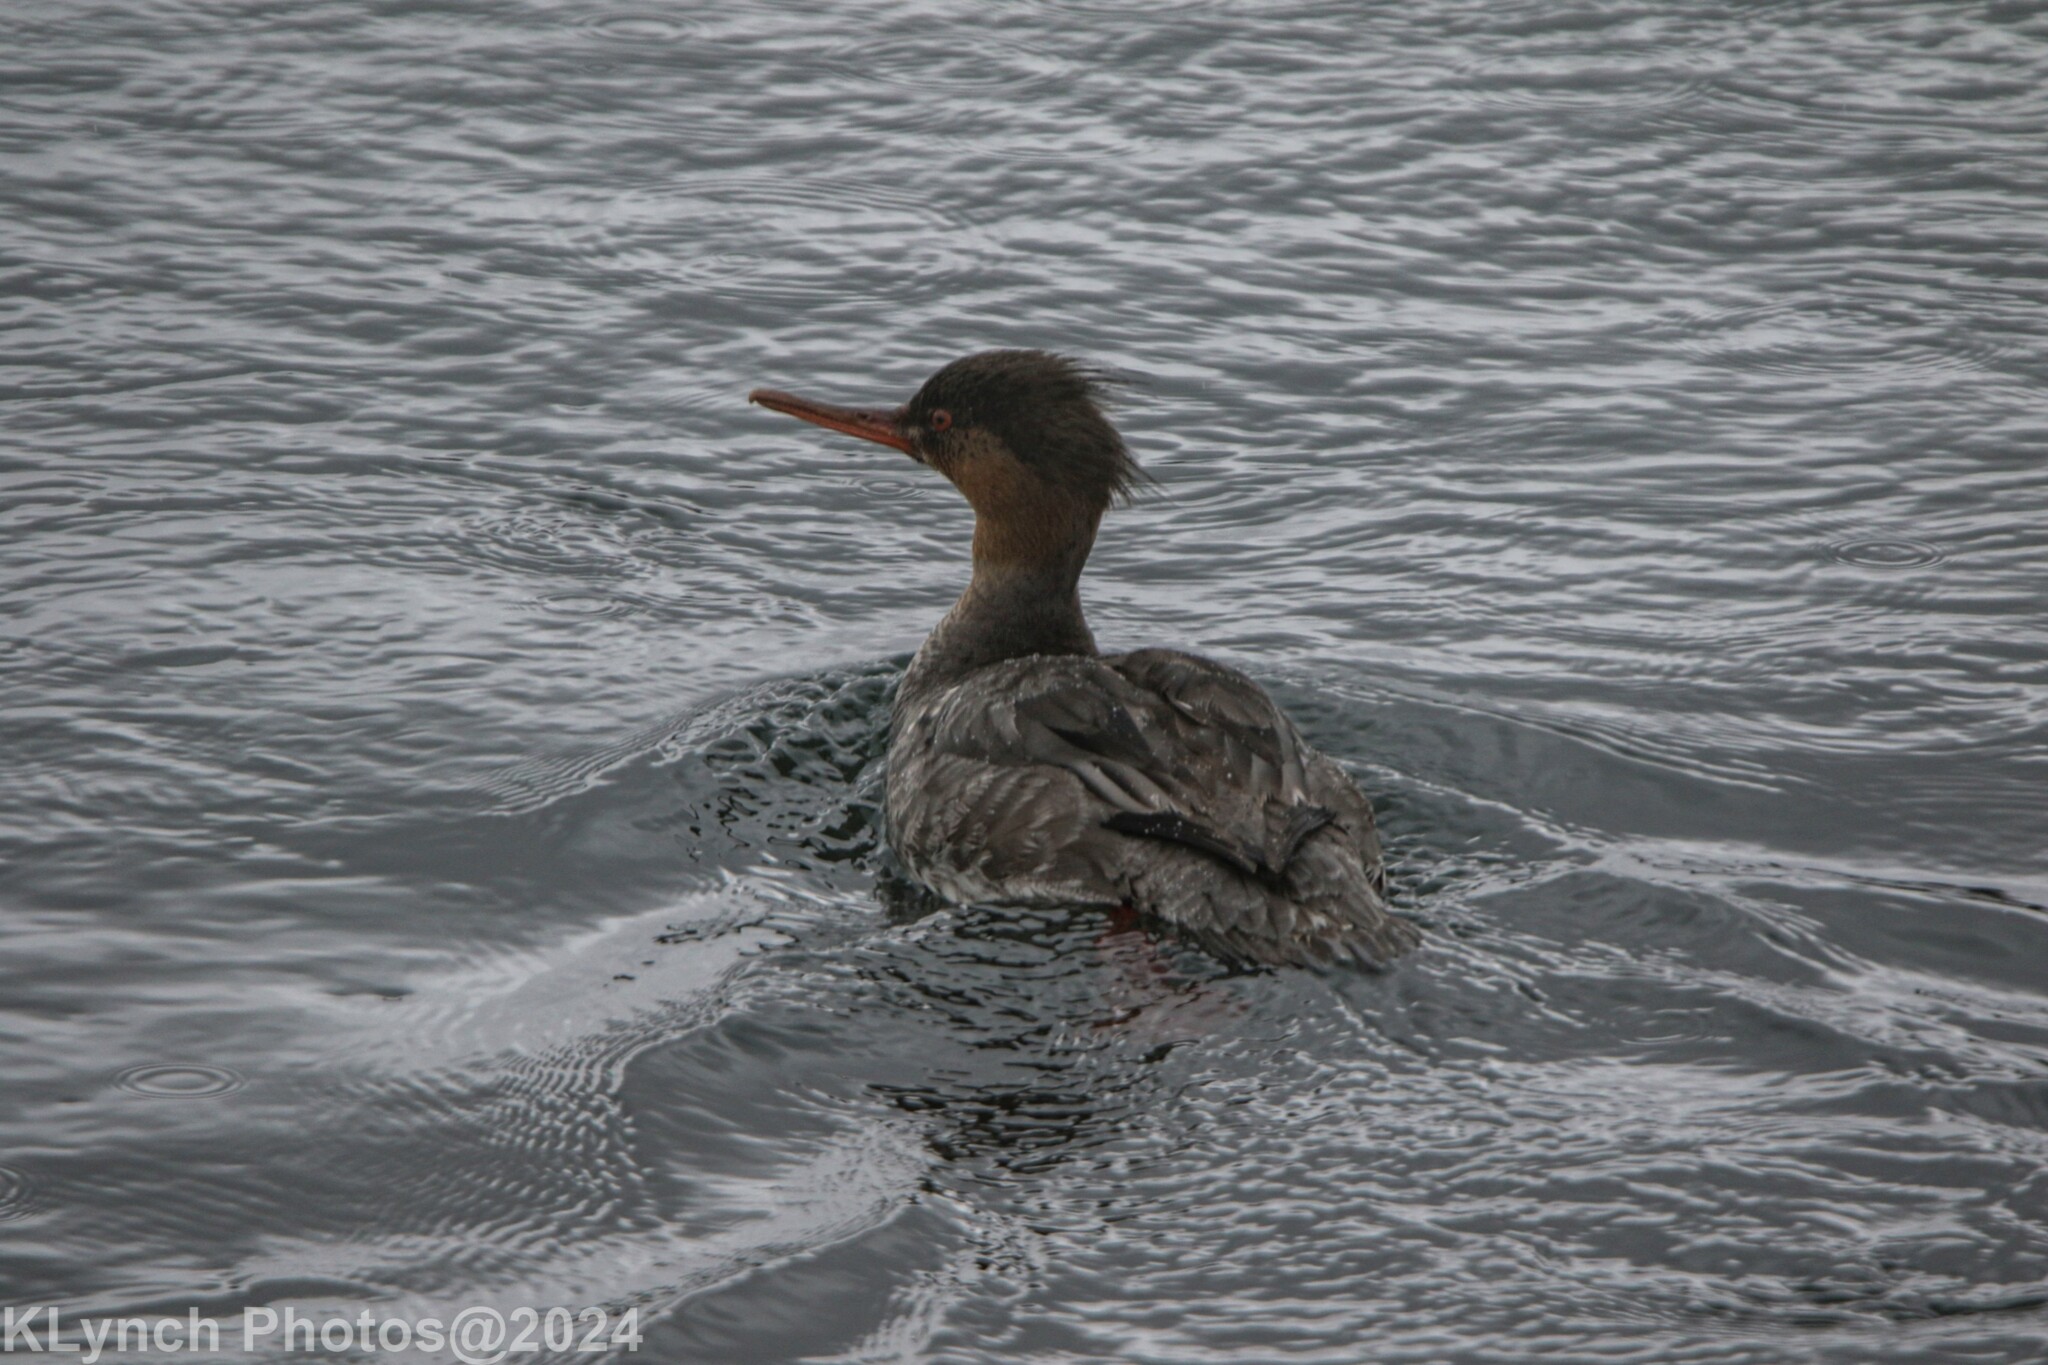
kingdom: Animalia
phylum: Chordata
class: Aves
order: Anseriformes
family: Anatidae
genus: Mergus
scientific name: Mergus serrator
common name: Red-breasted merganser
